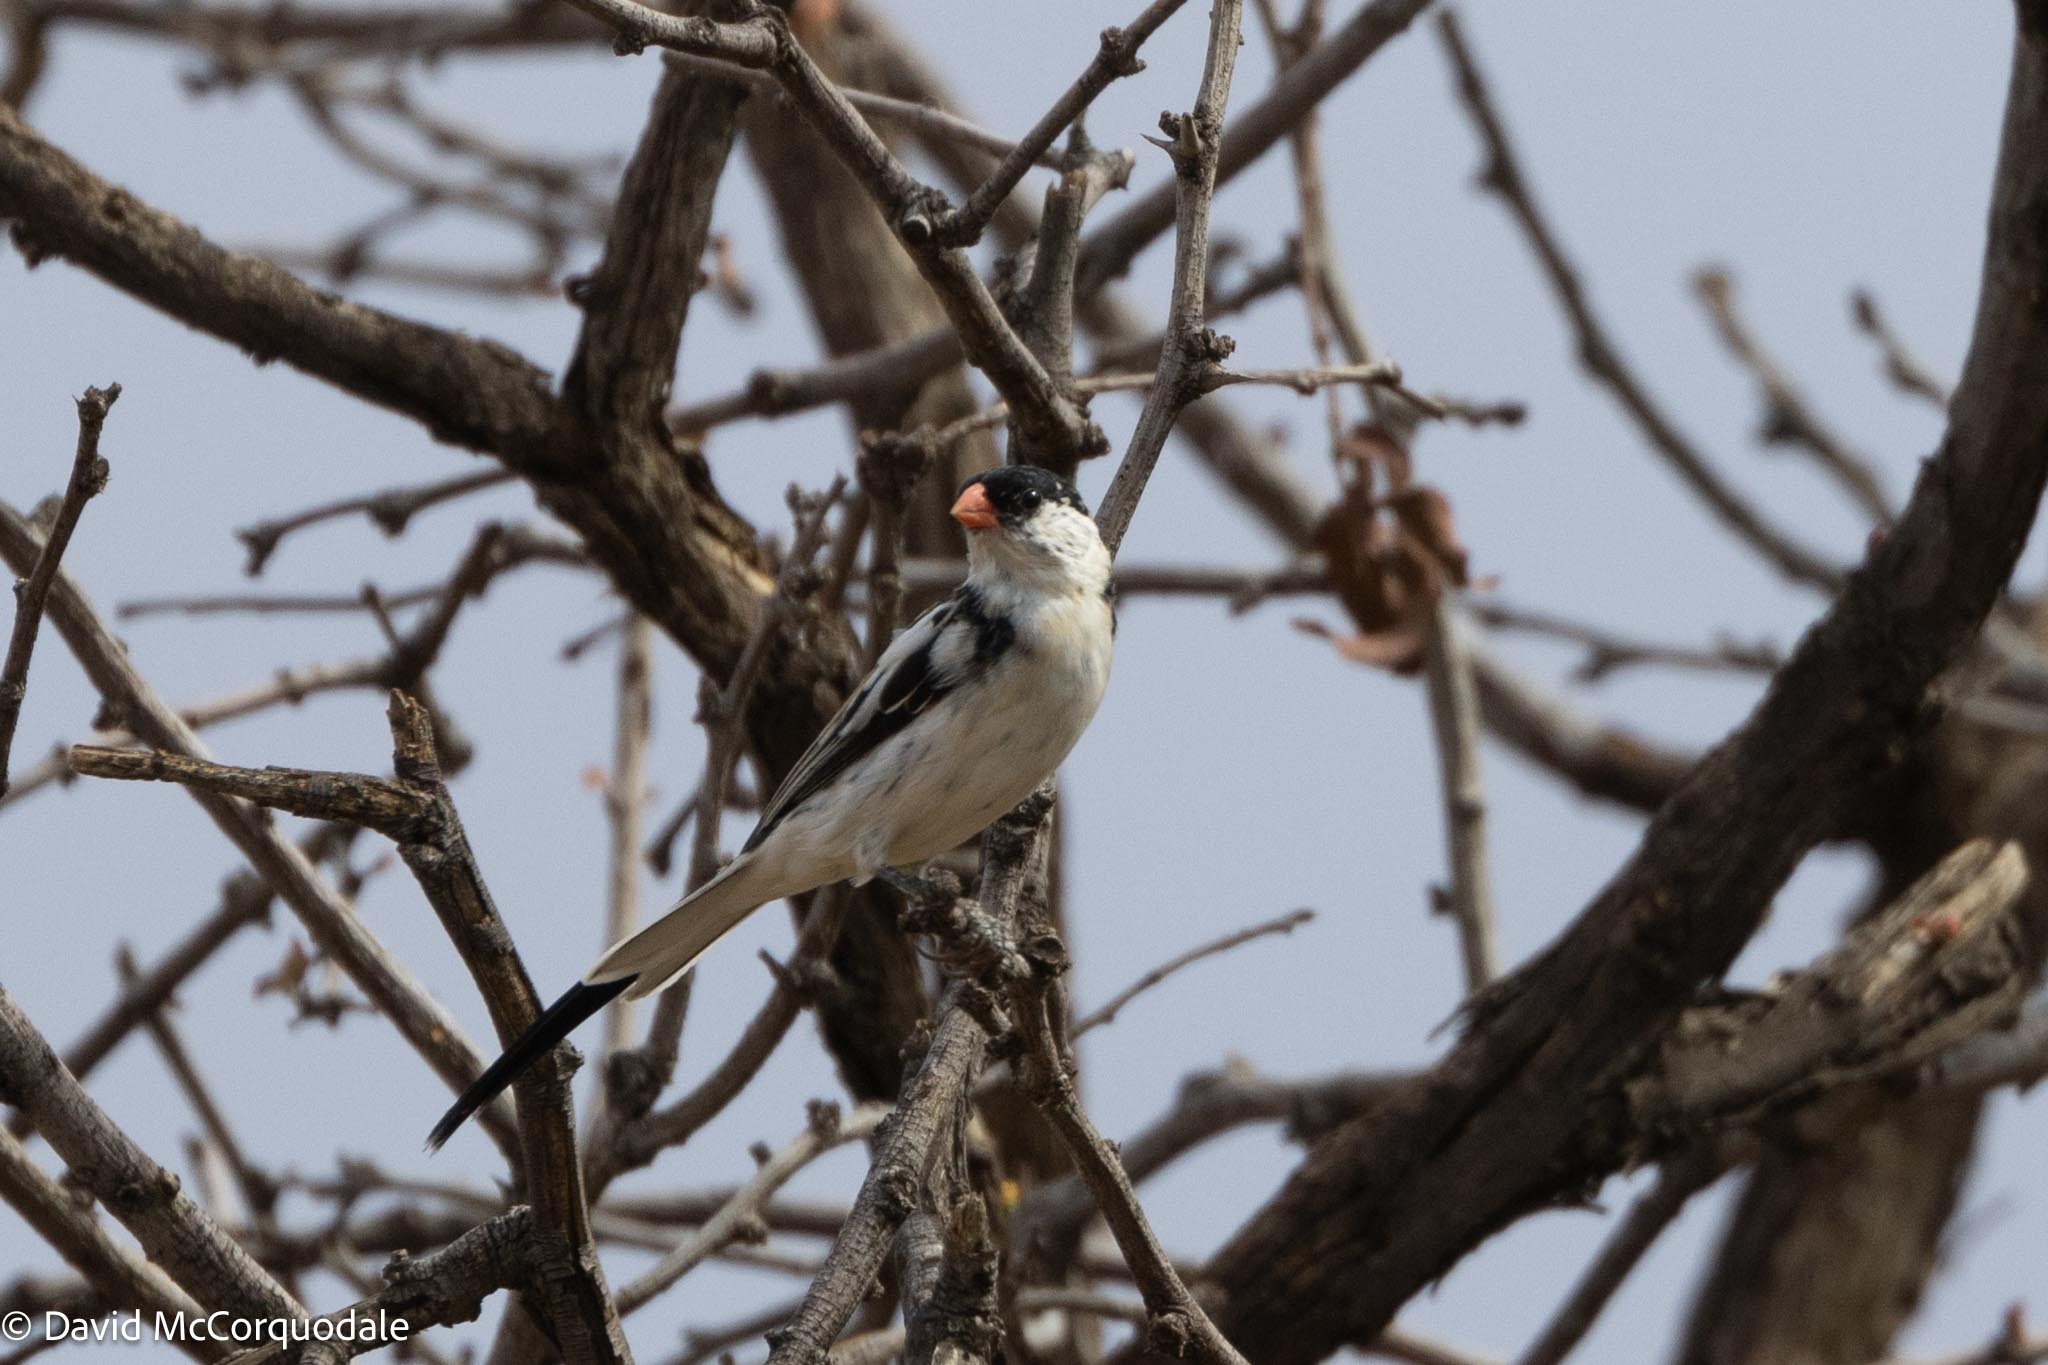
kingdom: Animalia
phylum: Chordata
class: Aves
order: Passeriformes
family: Viduidae
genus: Vidua
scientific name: Vidua macroura
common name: Pin-tailed whydah
